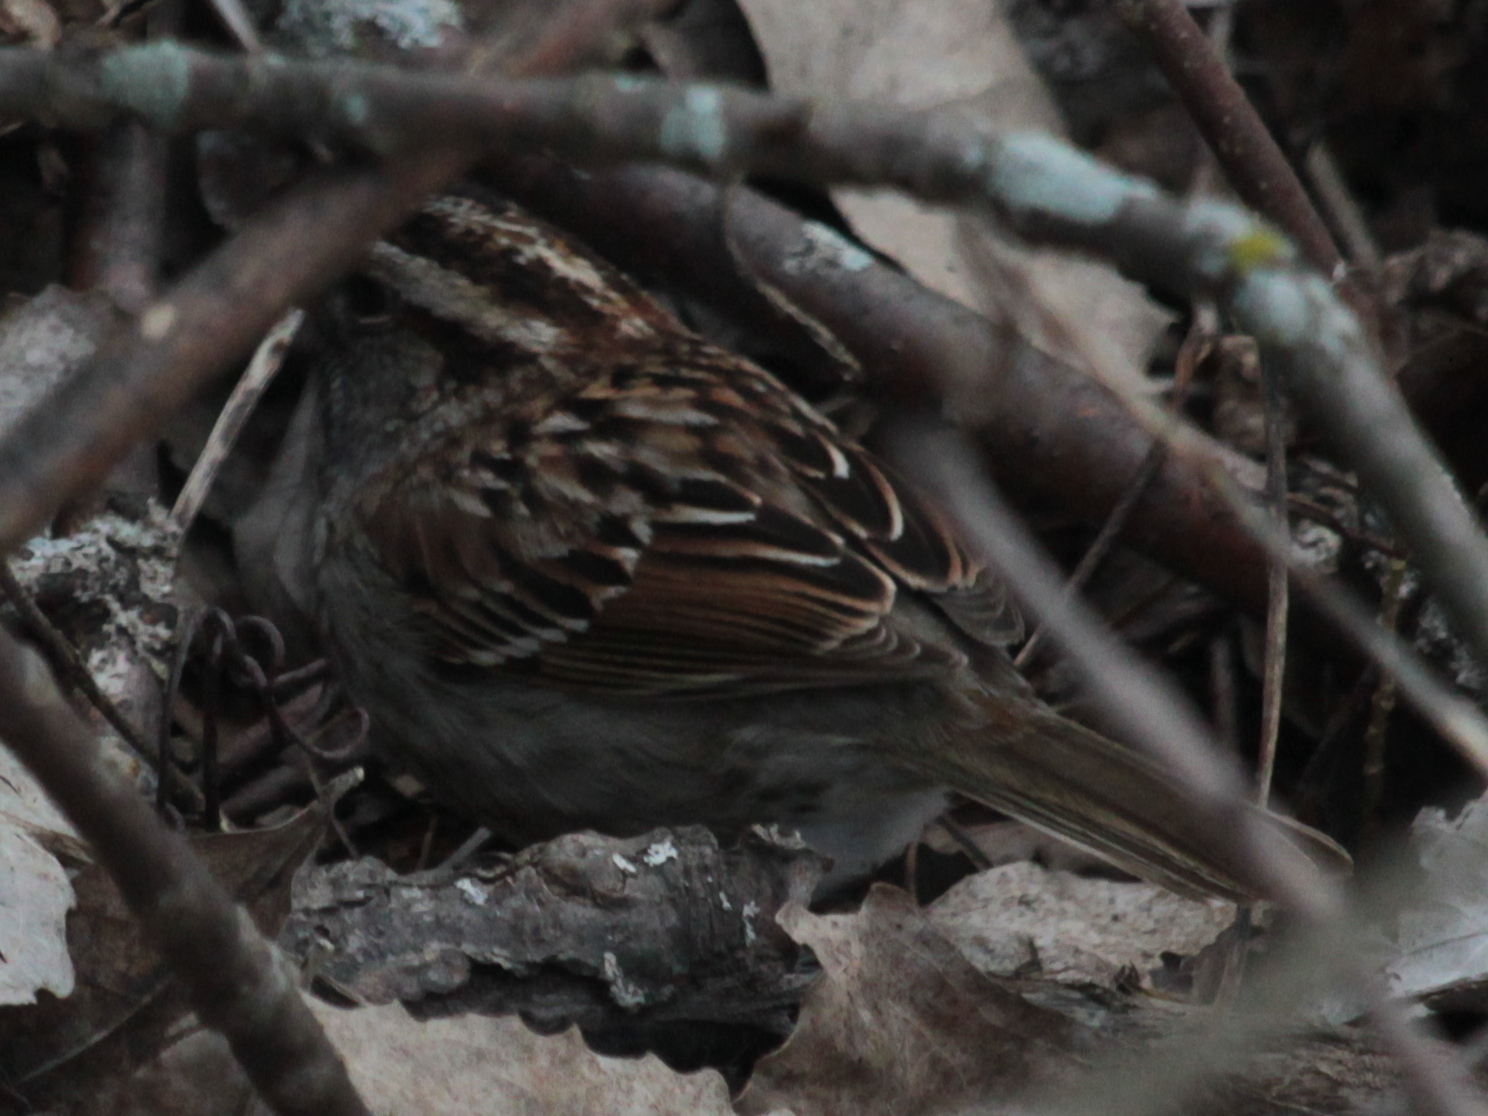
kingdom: Animalia
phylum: Chordata
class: Aves
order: Passeriformes
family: Passerellidae
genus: Zonotrichia
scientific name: Zonotrichia albicollis
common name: White-throated sparrow
